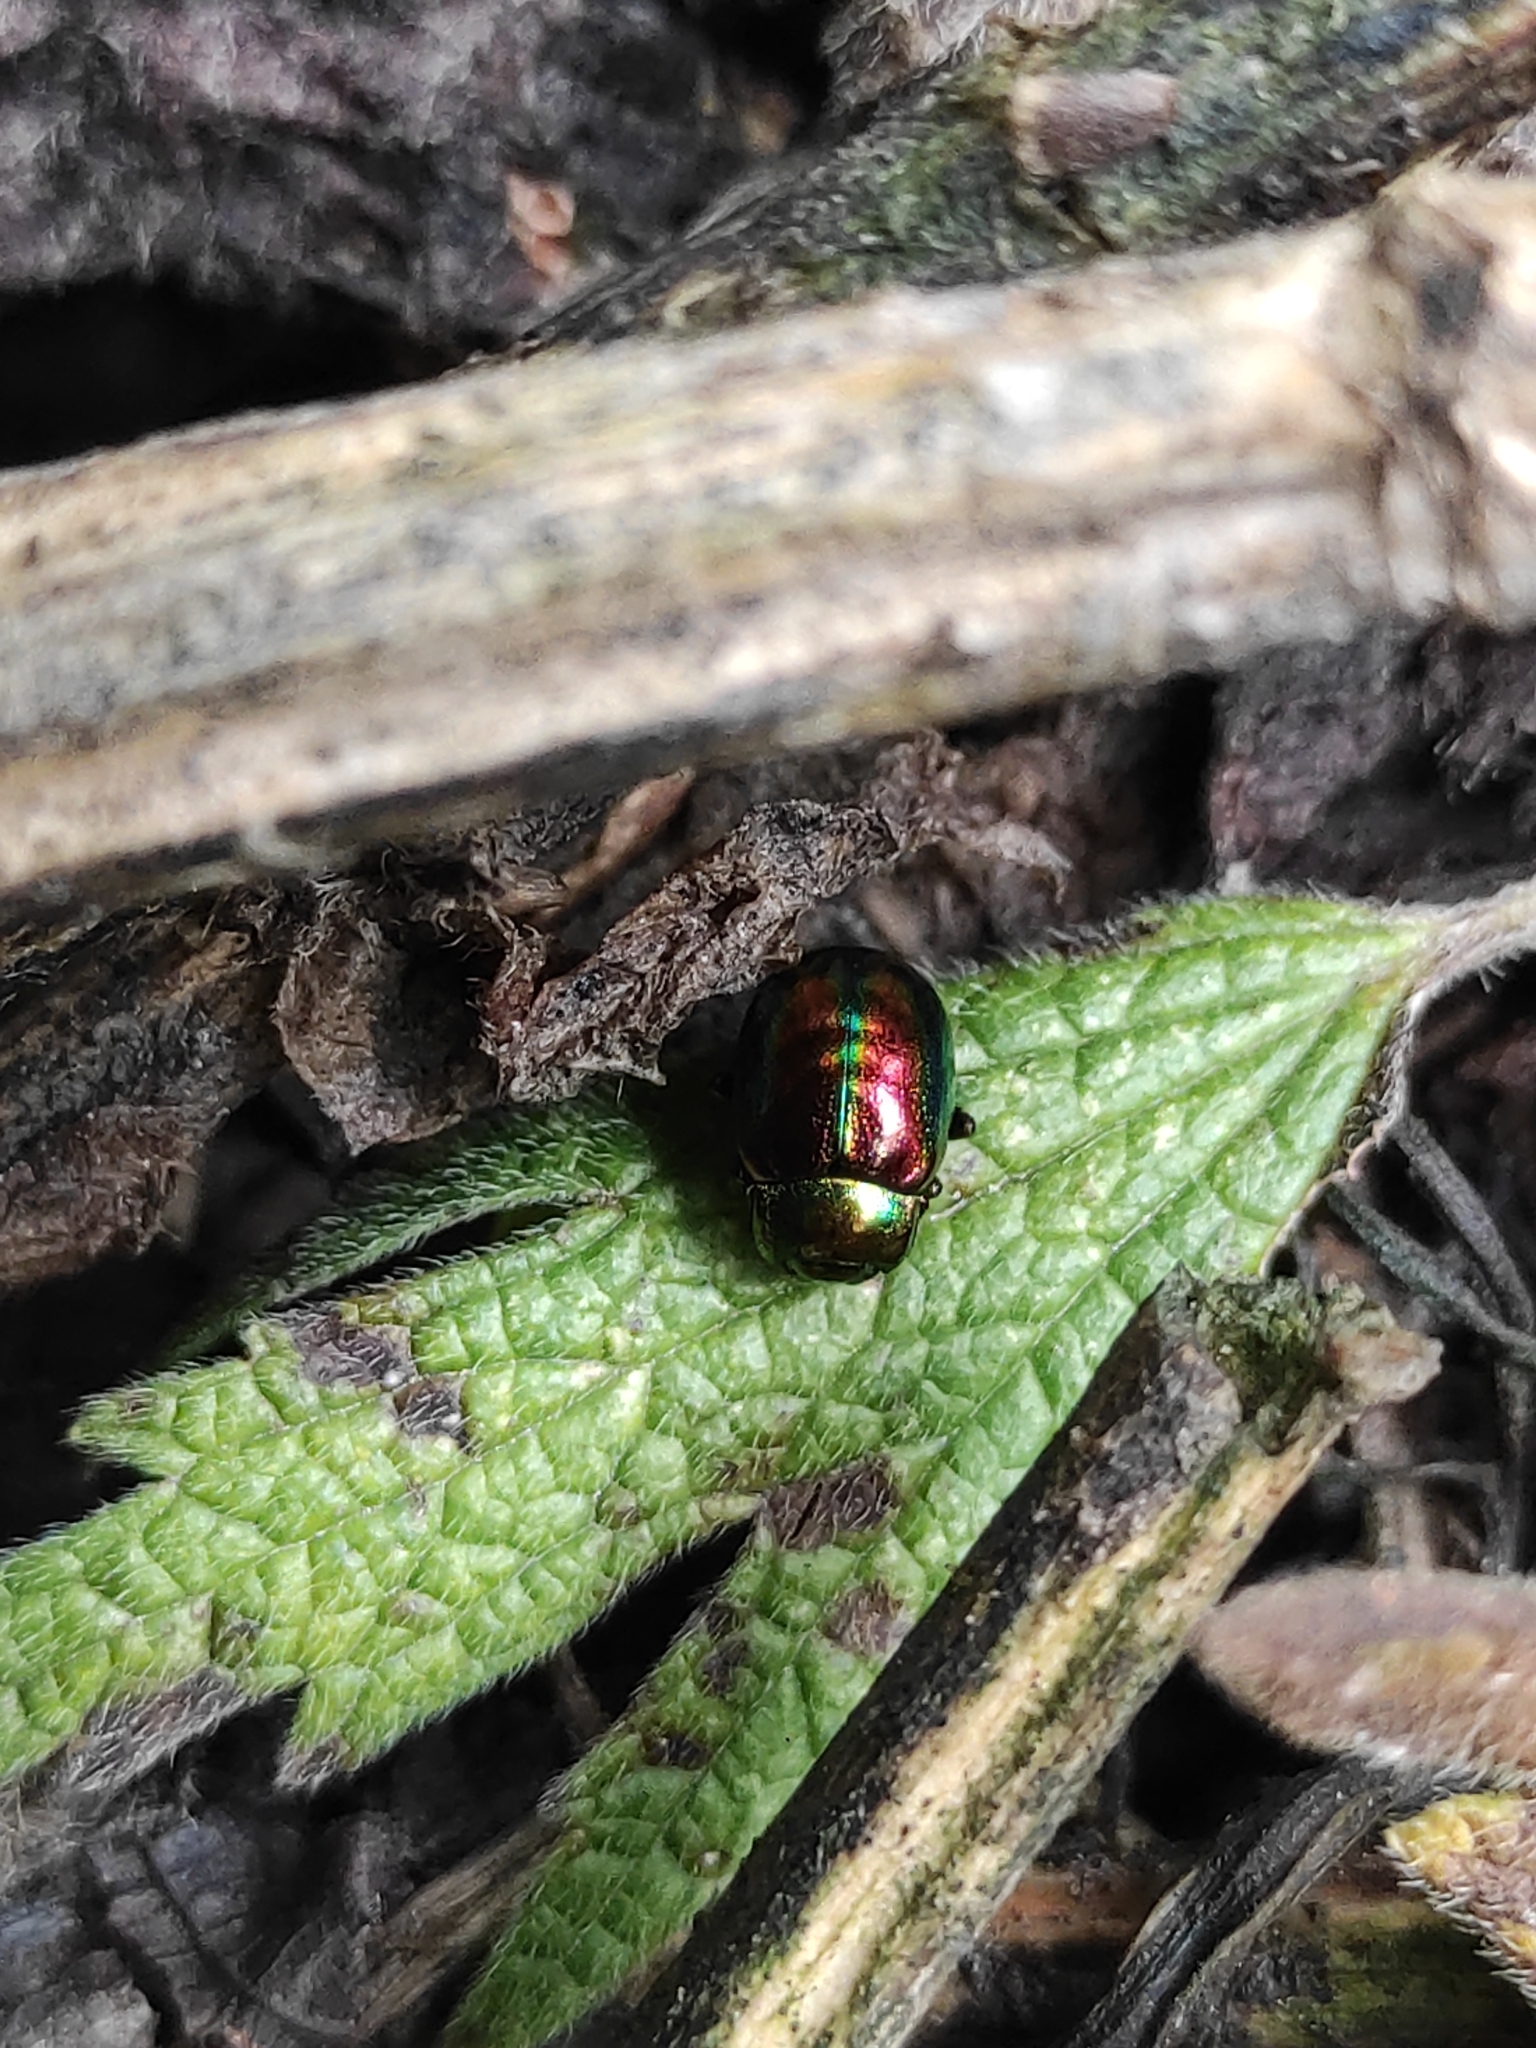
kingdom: Animalia
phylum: Arthropoda
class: Insecta
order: Coleoptera
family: Chrysomelidae
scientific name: Chrysomelidae
